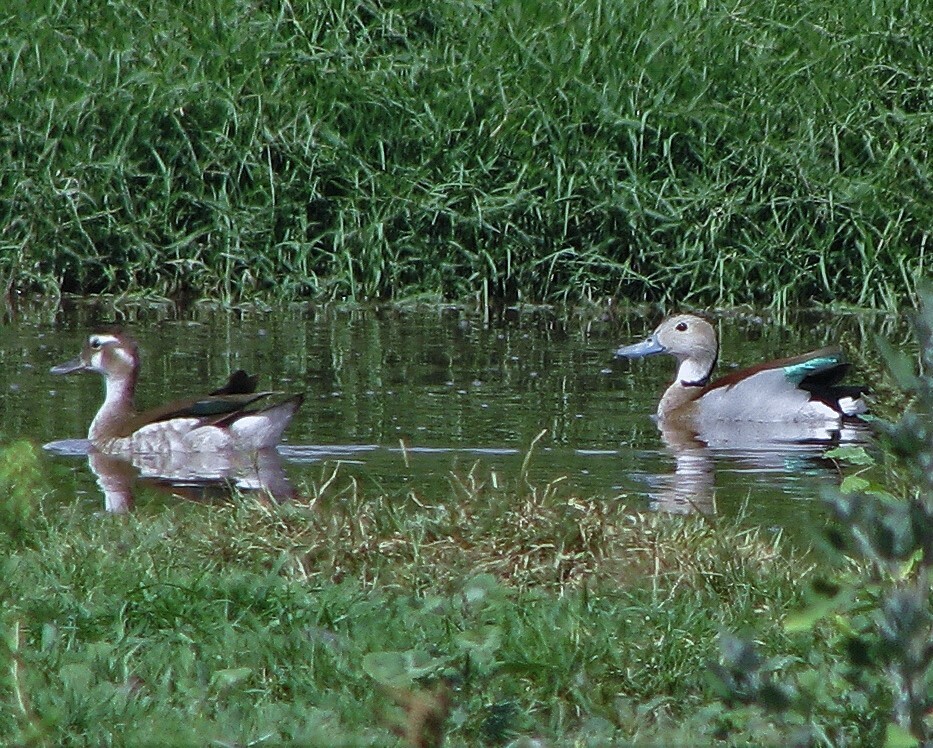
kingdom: Animalia
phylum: Chordata
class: Aves
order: Anseriformes
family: Anatidae
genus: Callonetta
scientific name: Callonetta leucophrys
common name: Ringed teal
